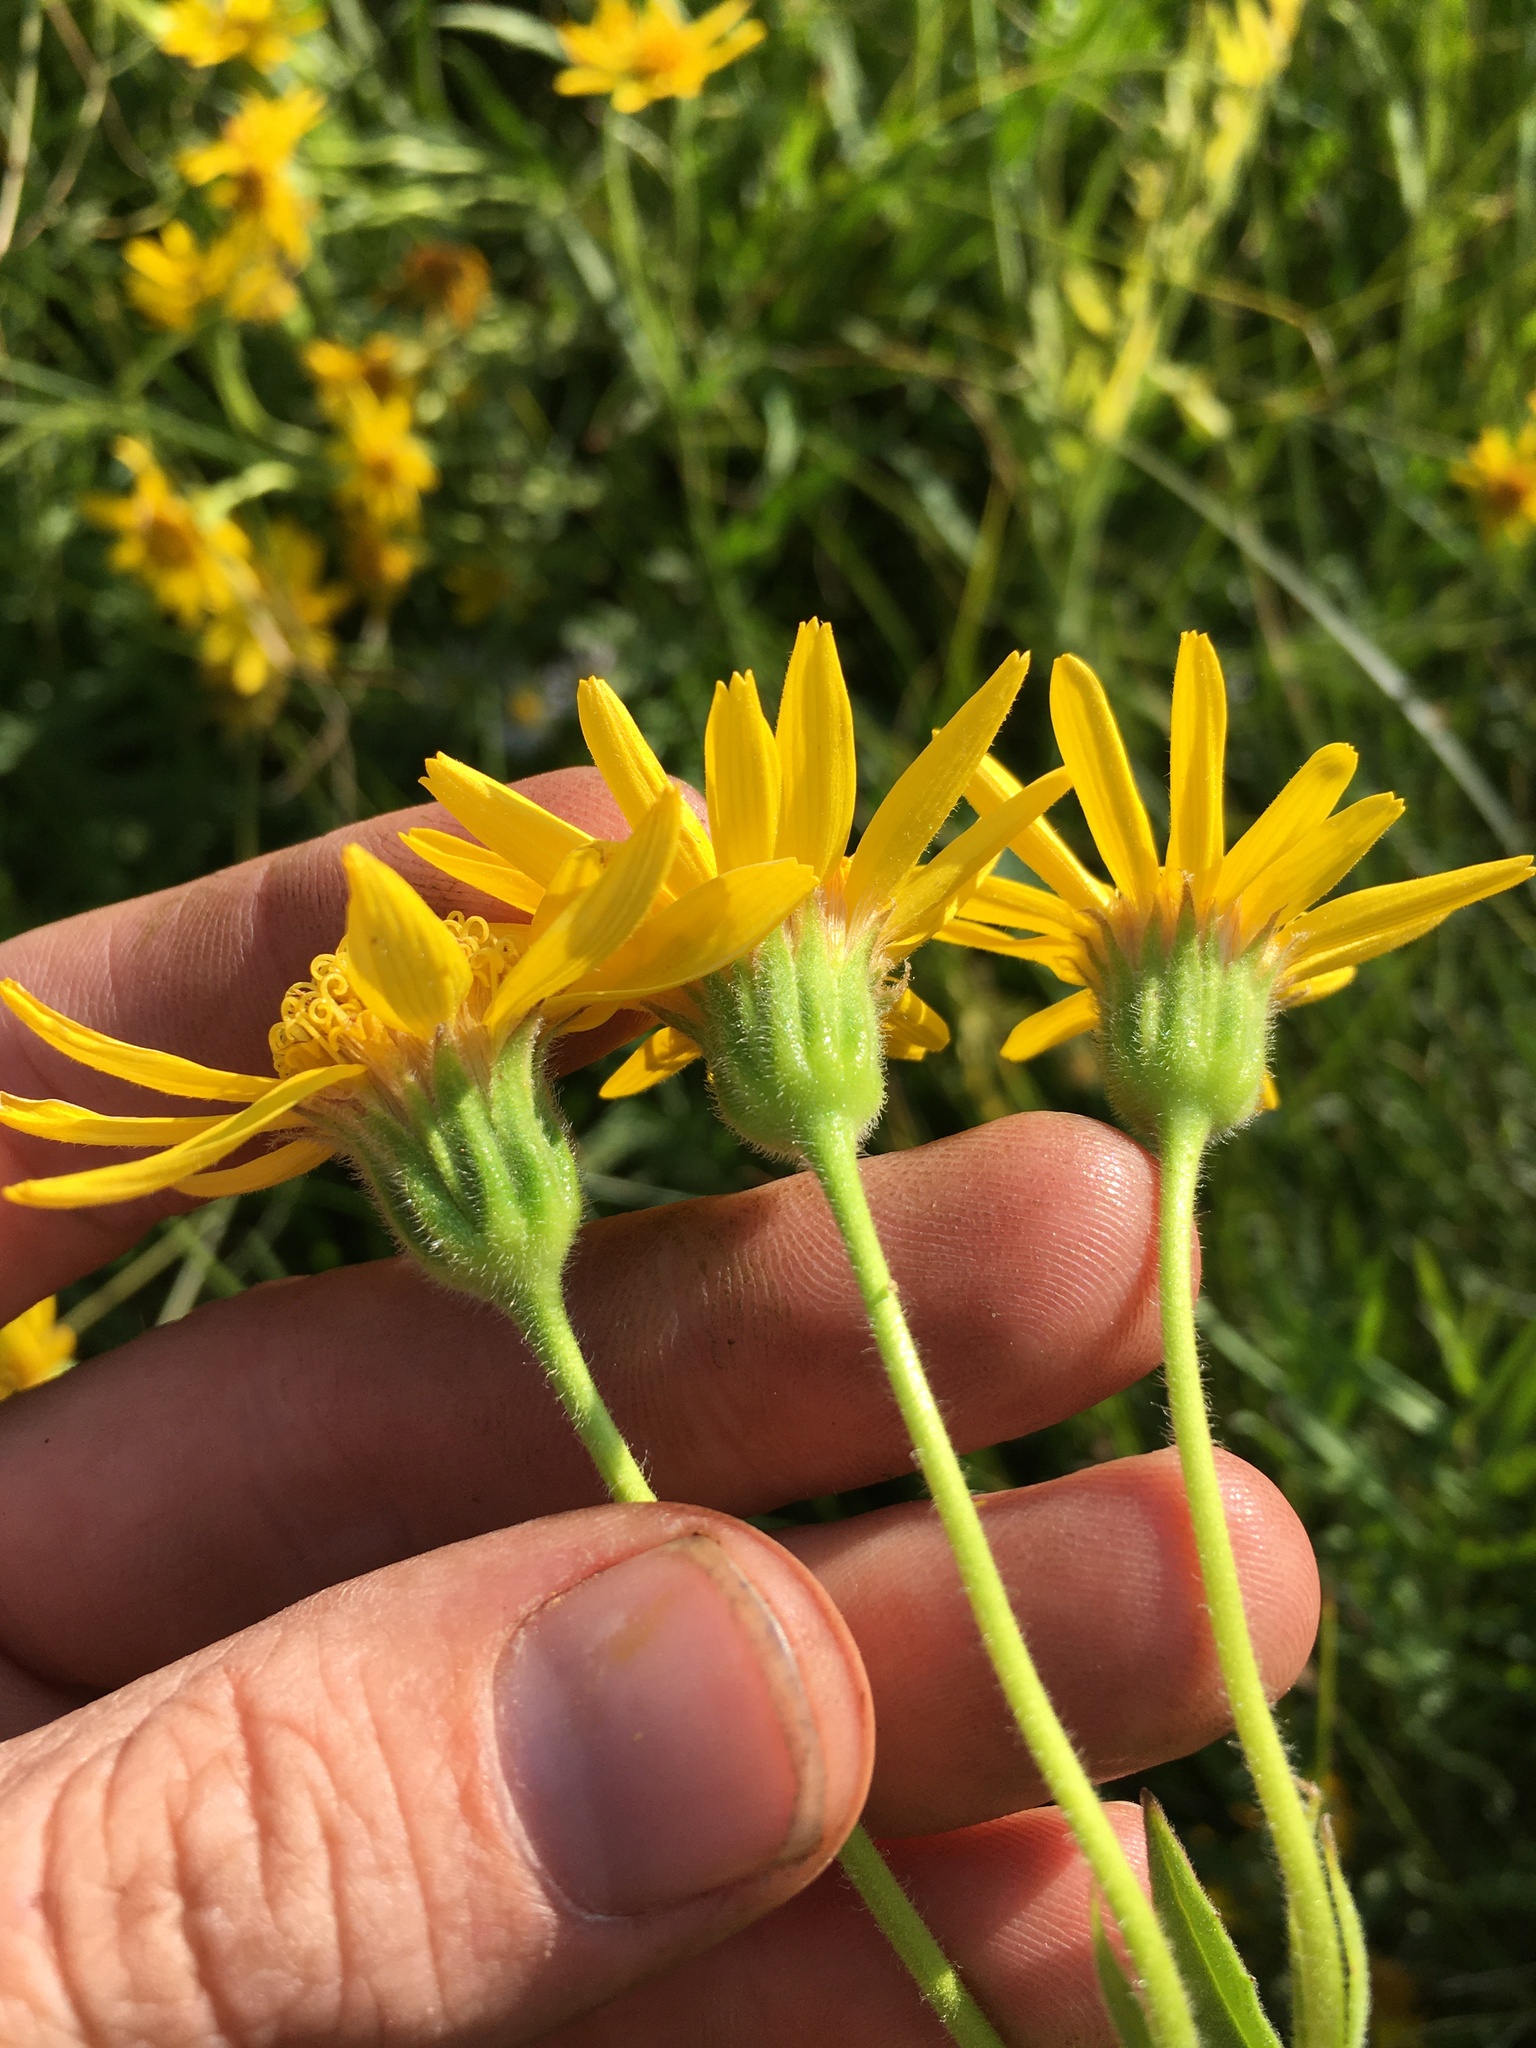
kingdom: Plantae
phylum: Tracheophyta
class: Magnoliopsida
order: Asterales
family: Asteraceae
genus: Arnica
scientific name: Arnica lanceolata
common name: Lance-leaved arnica
